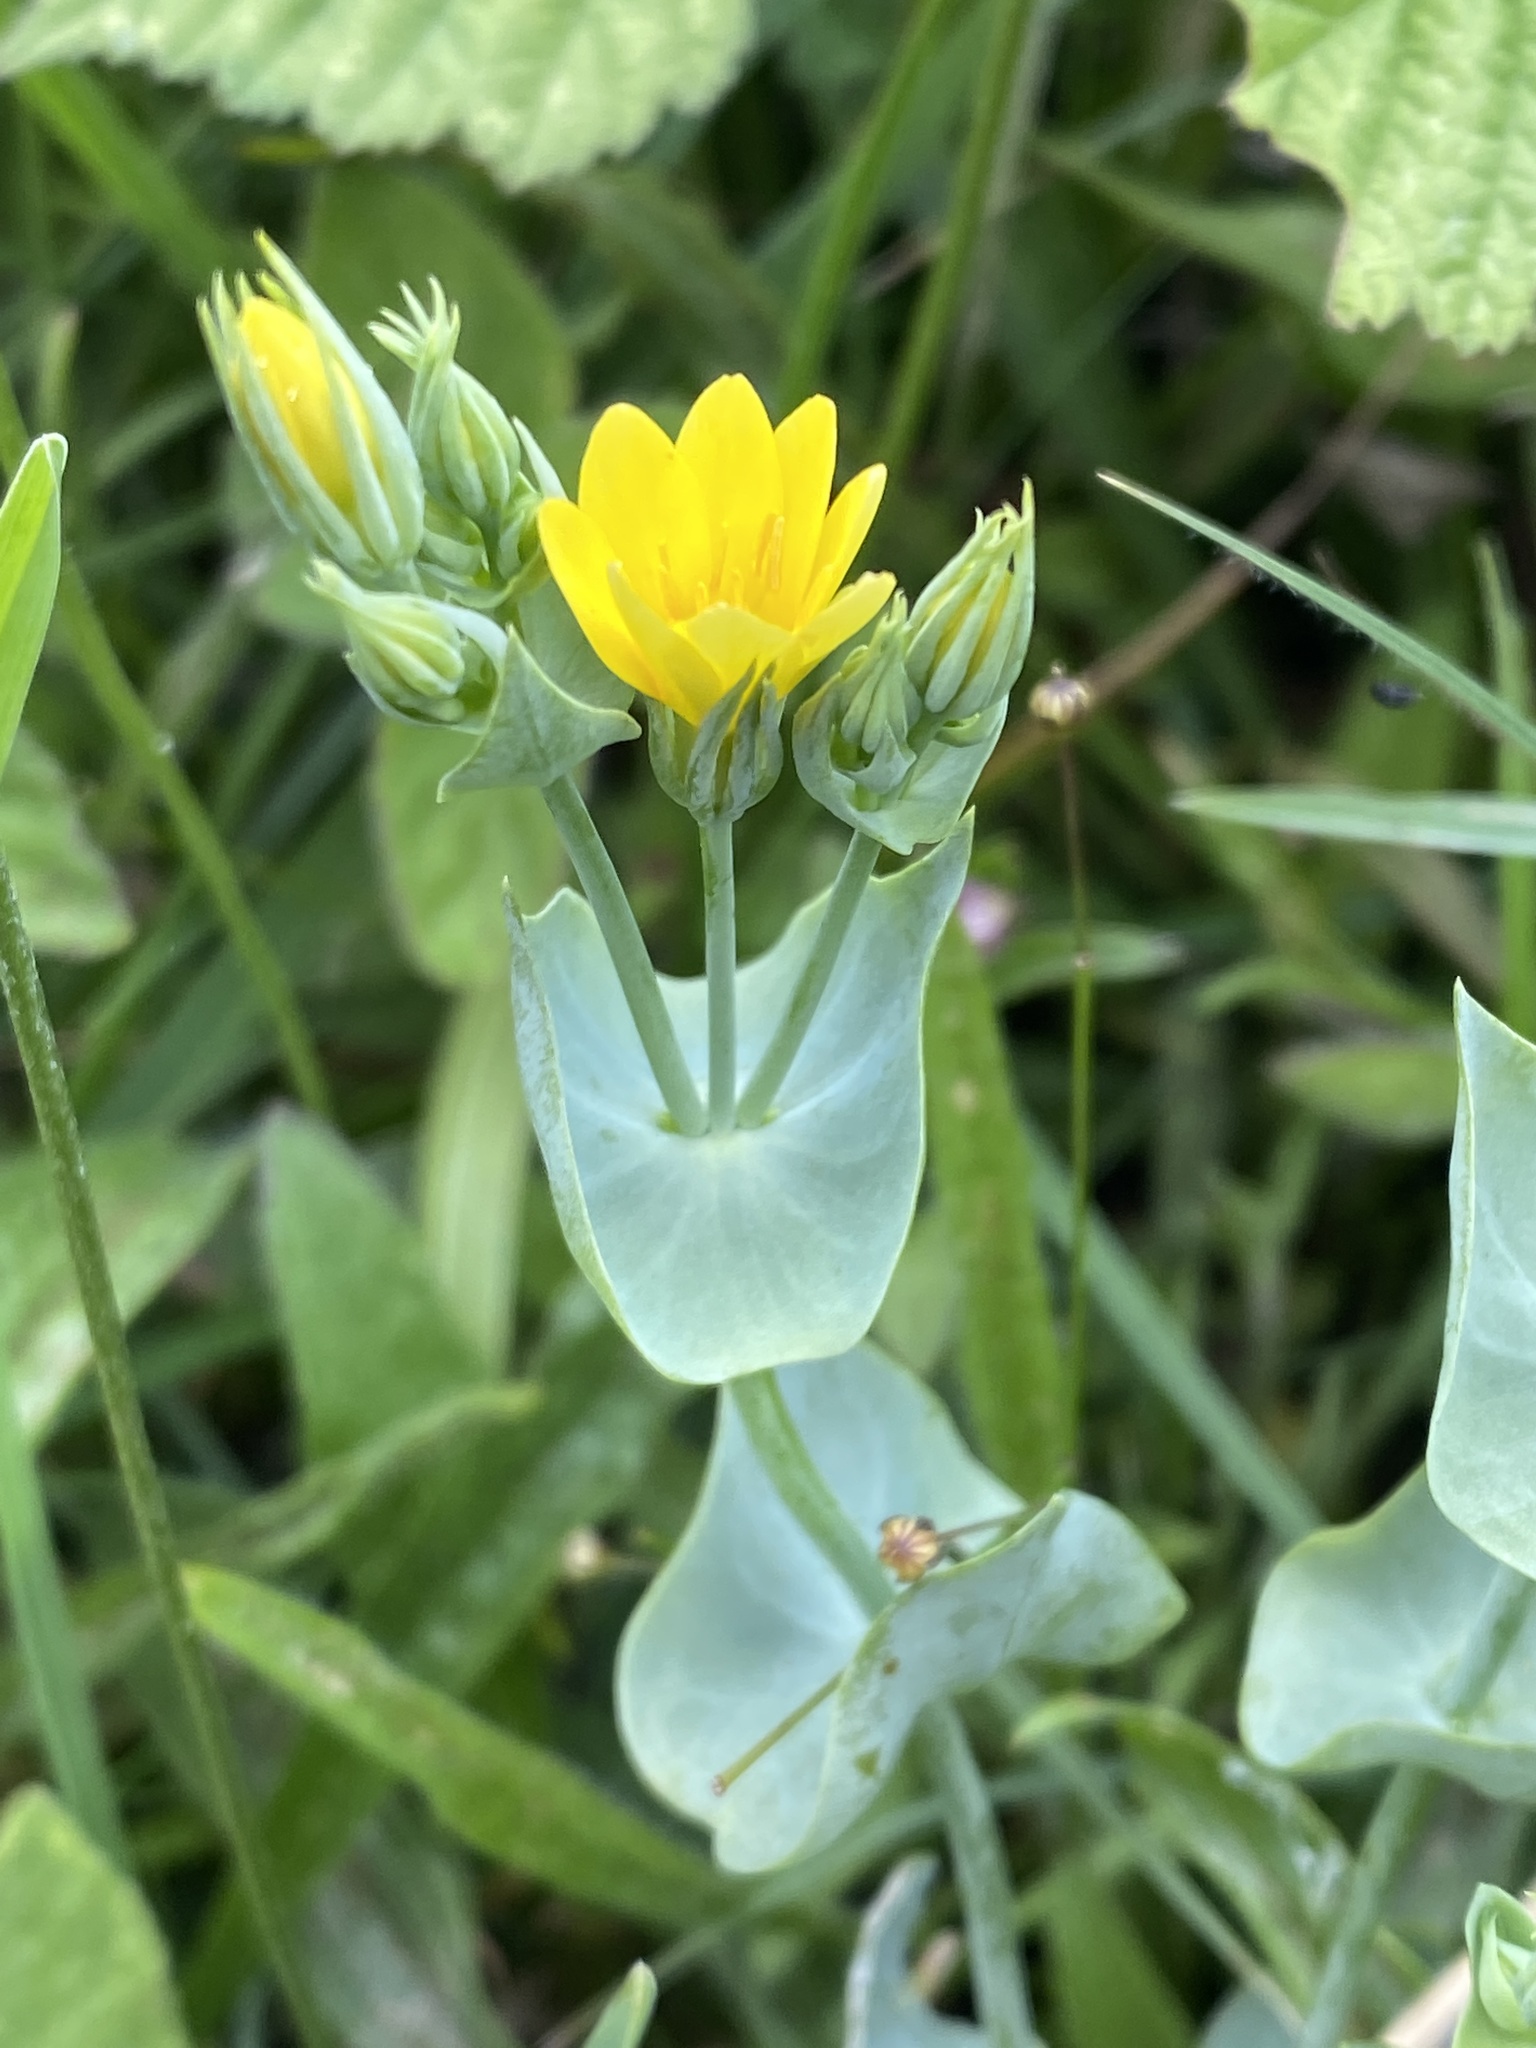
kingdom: Plantae
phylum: Tracheophyta
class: Magnoliopsida
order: Gentianales
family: Gentianaceae
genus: Blackstonia
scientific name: Blackstonia perfoliata
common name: Yellow-wort
